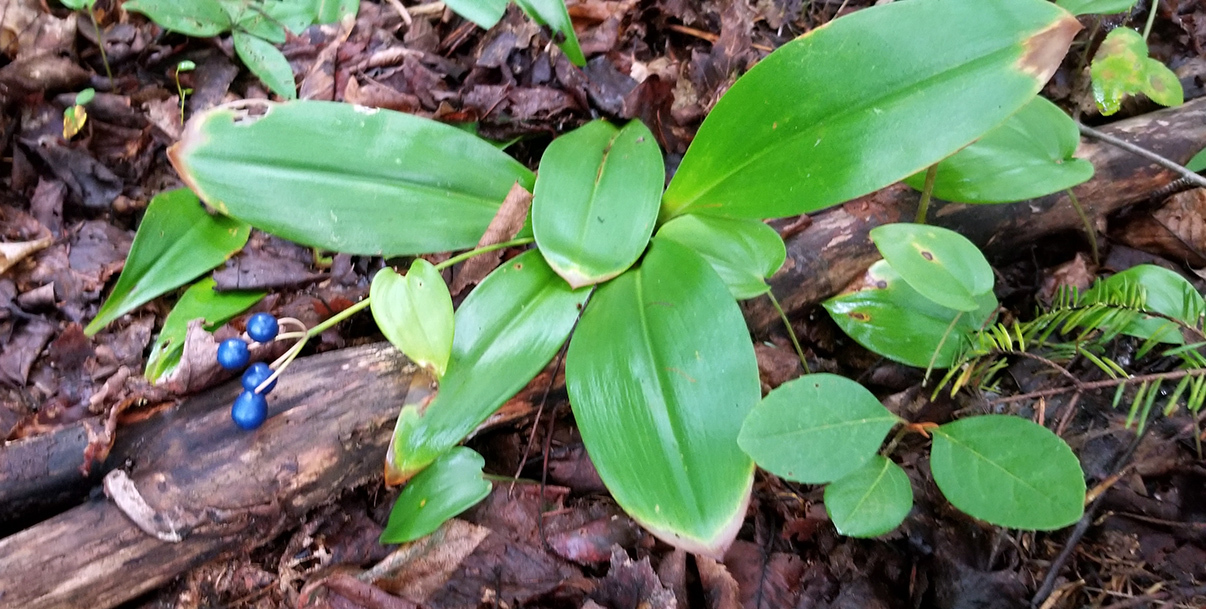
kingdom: Plantae
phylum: Tracheophyta
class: Liliopsida
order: Liliales
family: Liliaceae
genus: Clintonia
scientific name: Clintonia borealis
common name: Yellow clintonia
